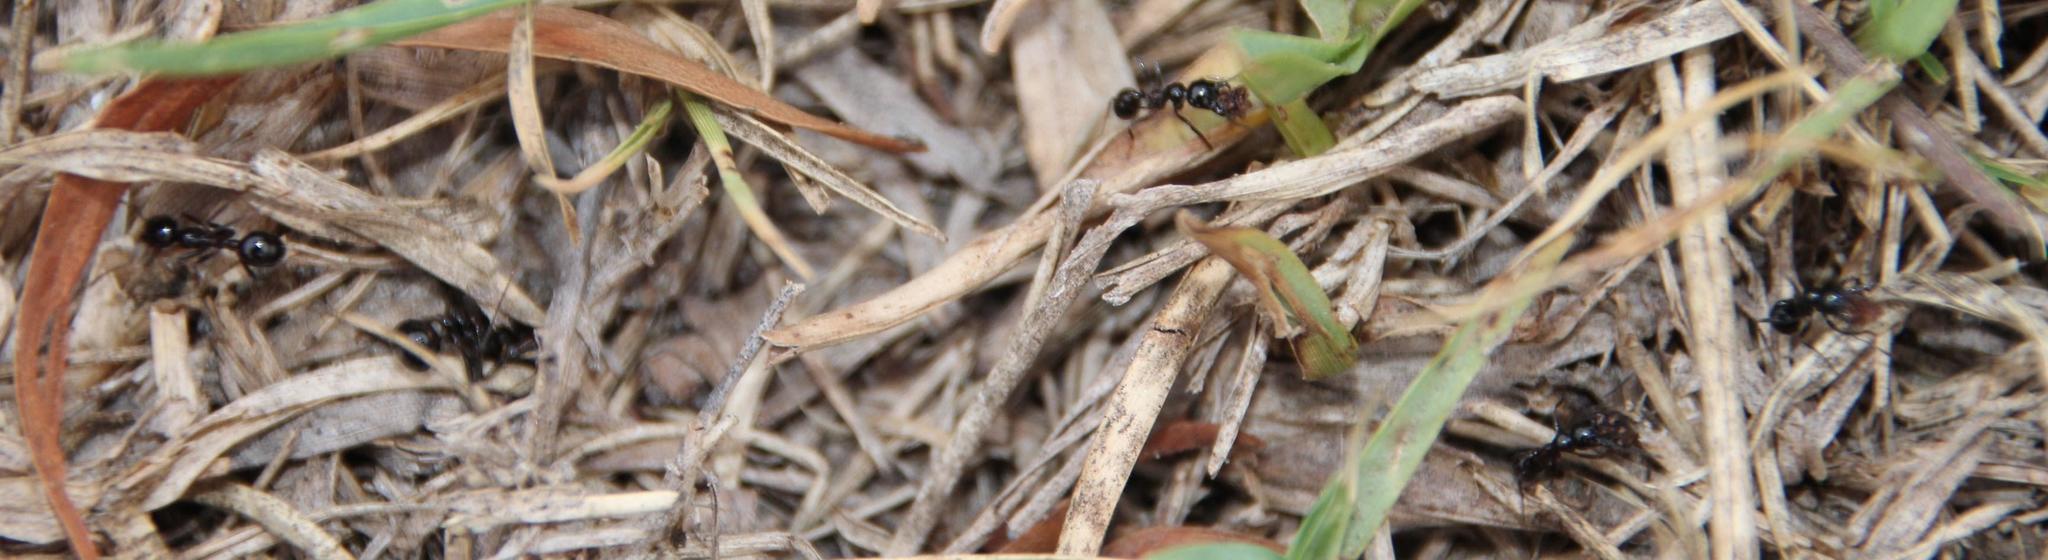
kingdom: Animalia
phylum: Arthropoda
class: Insecta
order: Hymenoptera
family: Formicidae
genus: Messor
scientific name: Messor capensis
